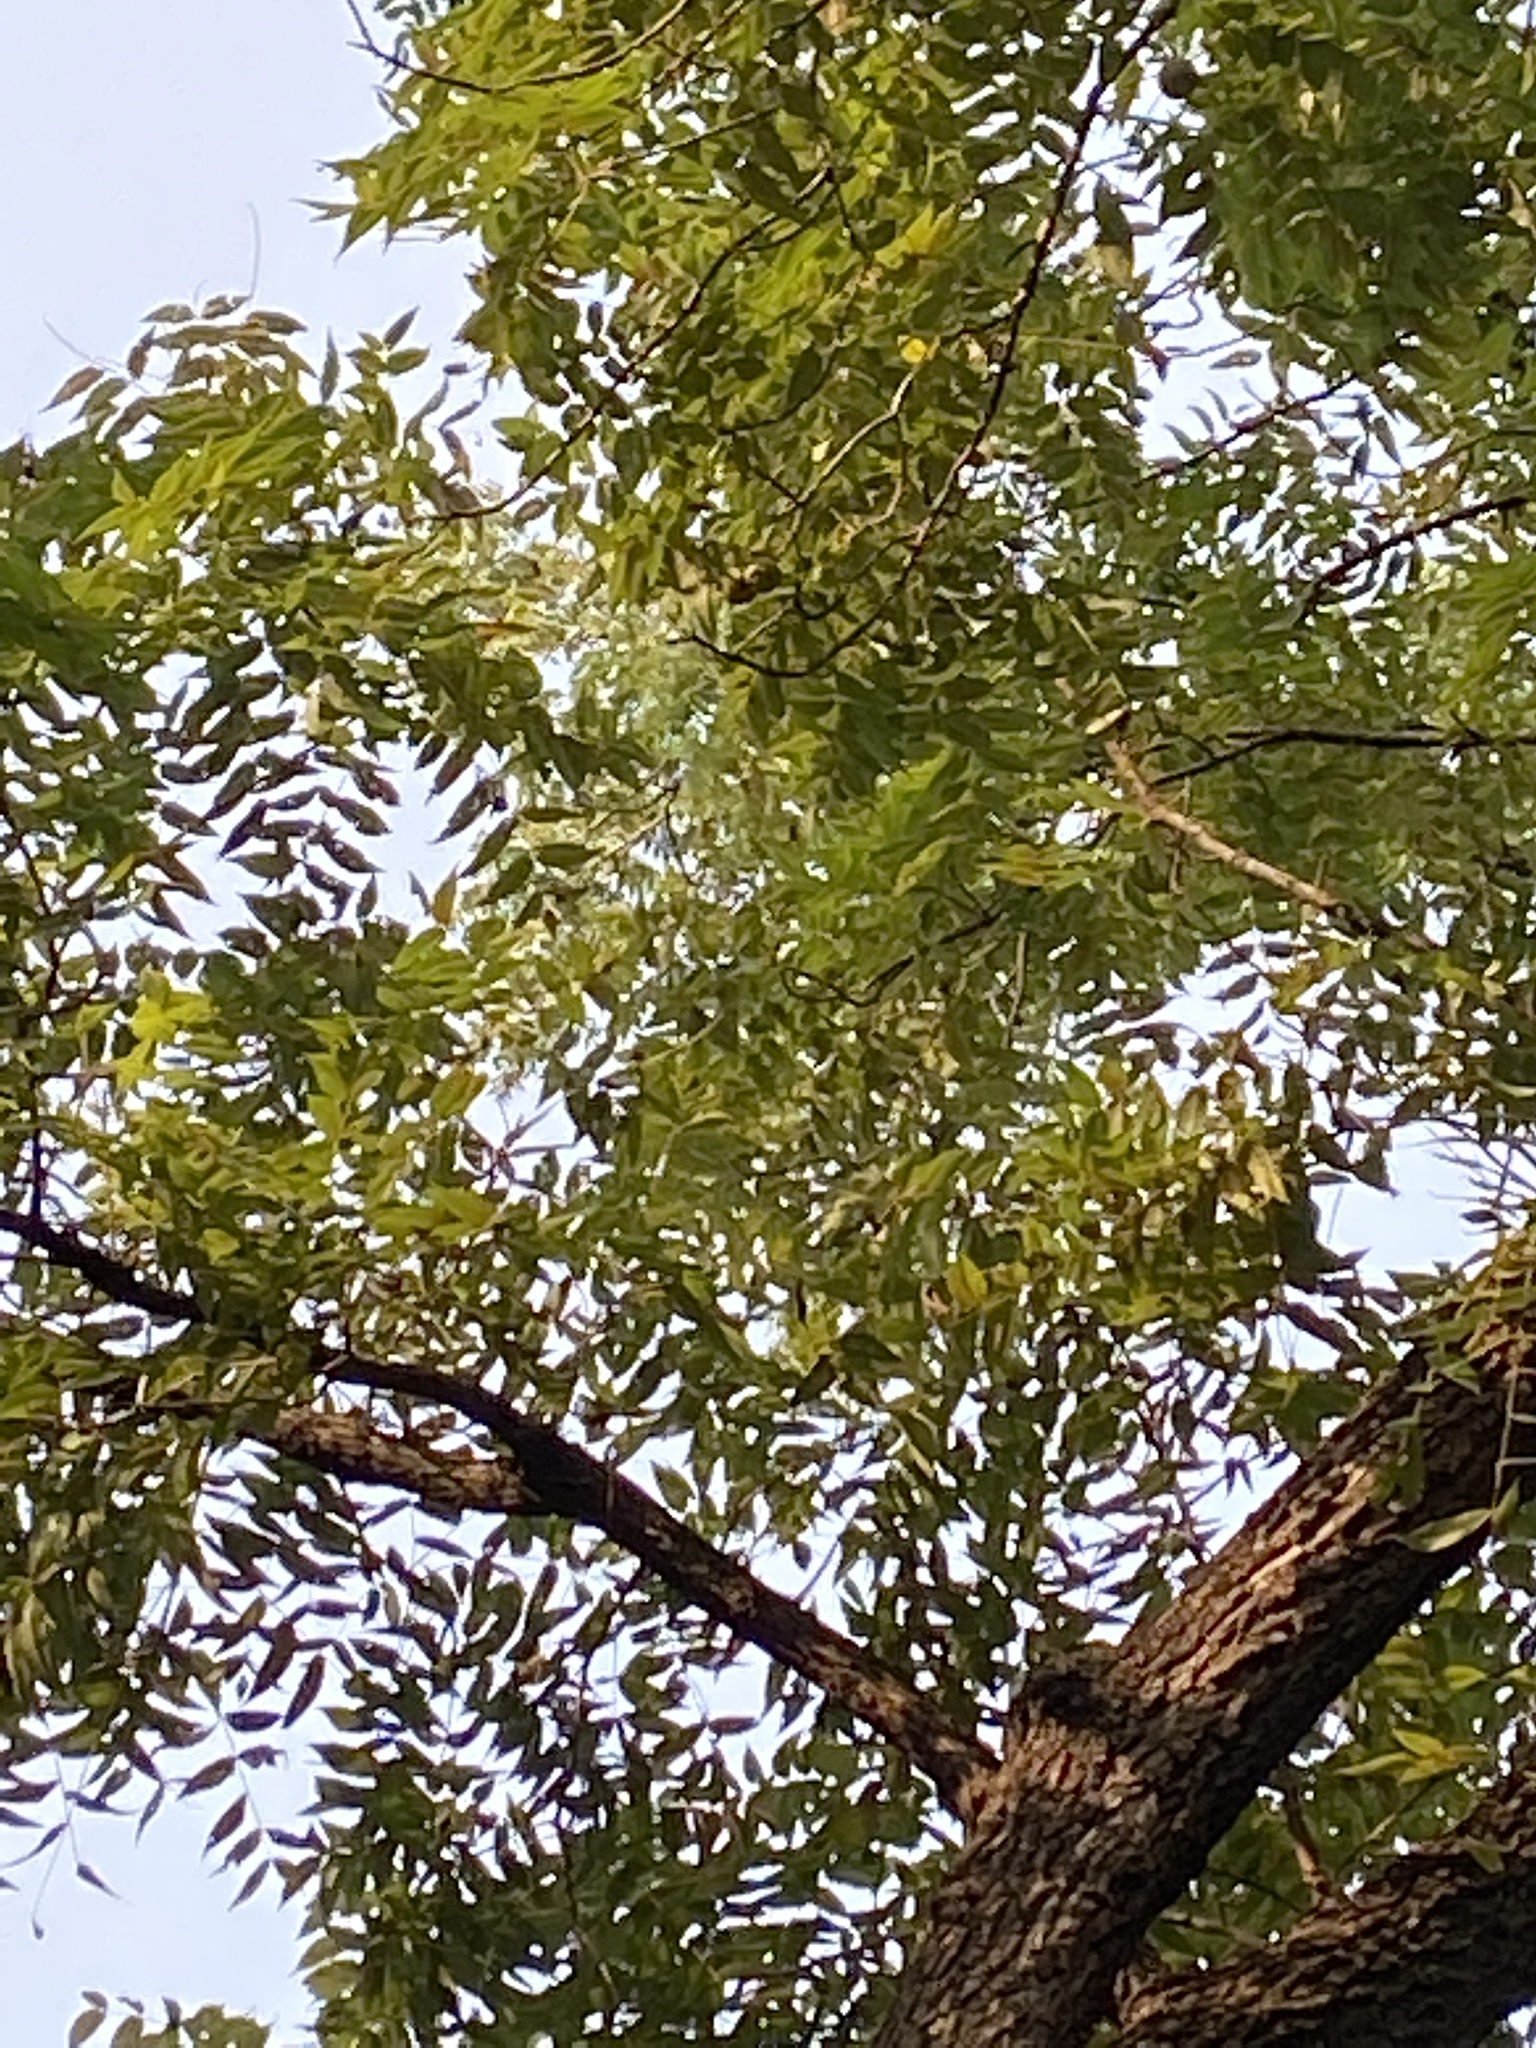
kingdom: Plantae
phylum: Tracheophyta
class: Magnoliopsida
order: Fagales
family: Juglandaceae
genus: Juglans
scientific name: Juglans nigra
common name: Black walnut
